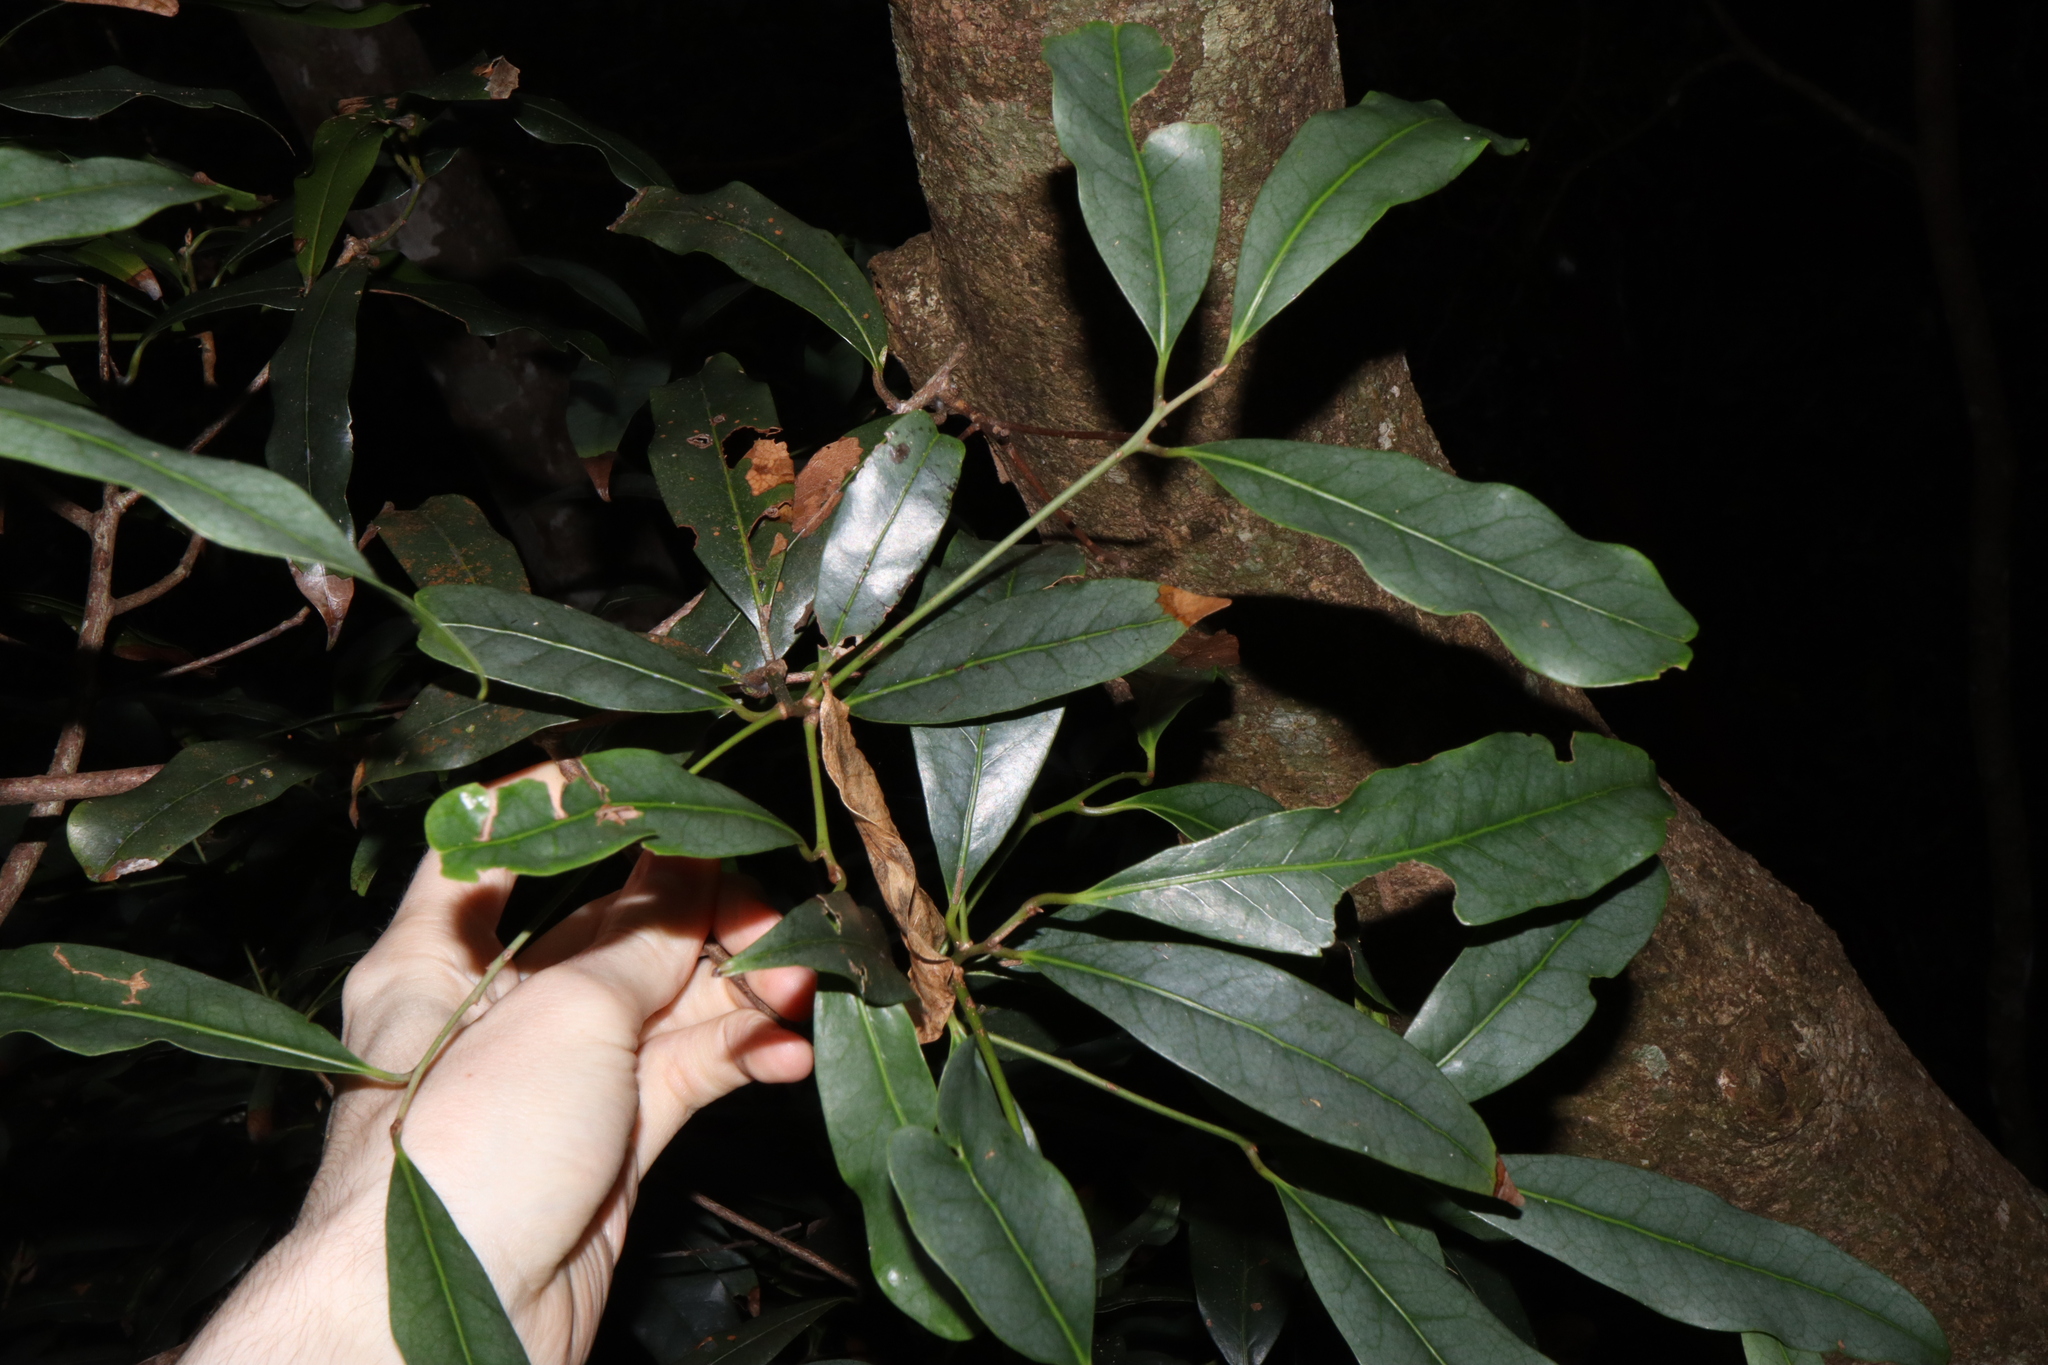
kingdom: Plantae
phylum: Tracheophyta
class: Magnoliopsida
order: Laurales
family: Lauraceae
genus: Beilschmiedia
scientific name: Beilschmiedia elliptica
